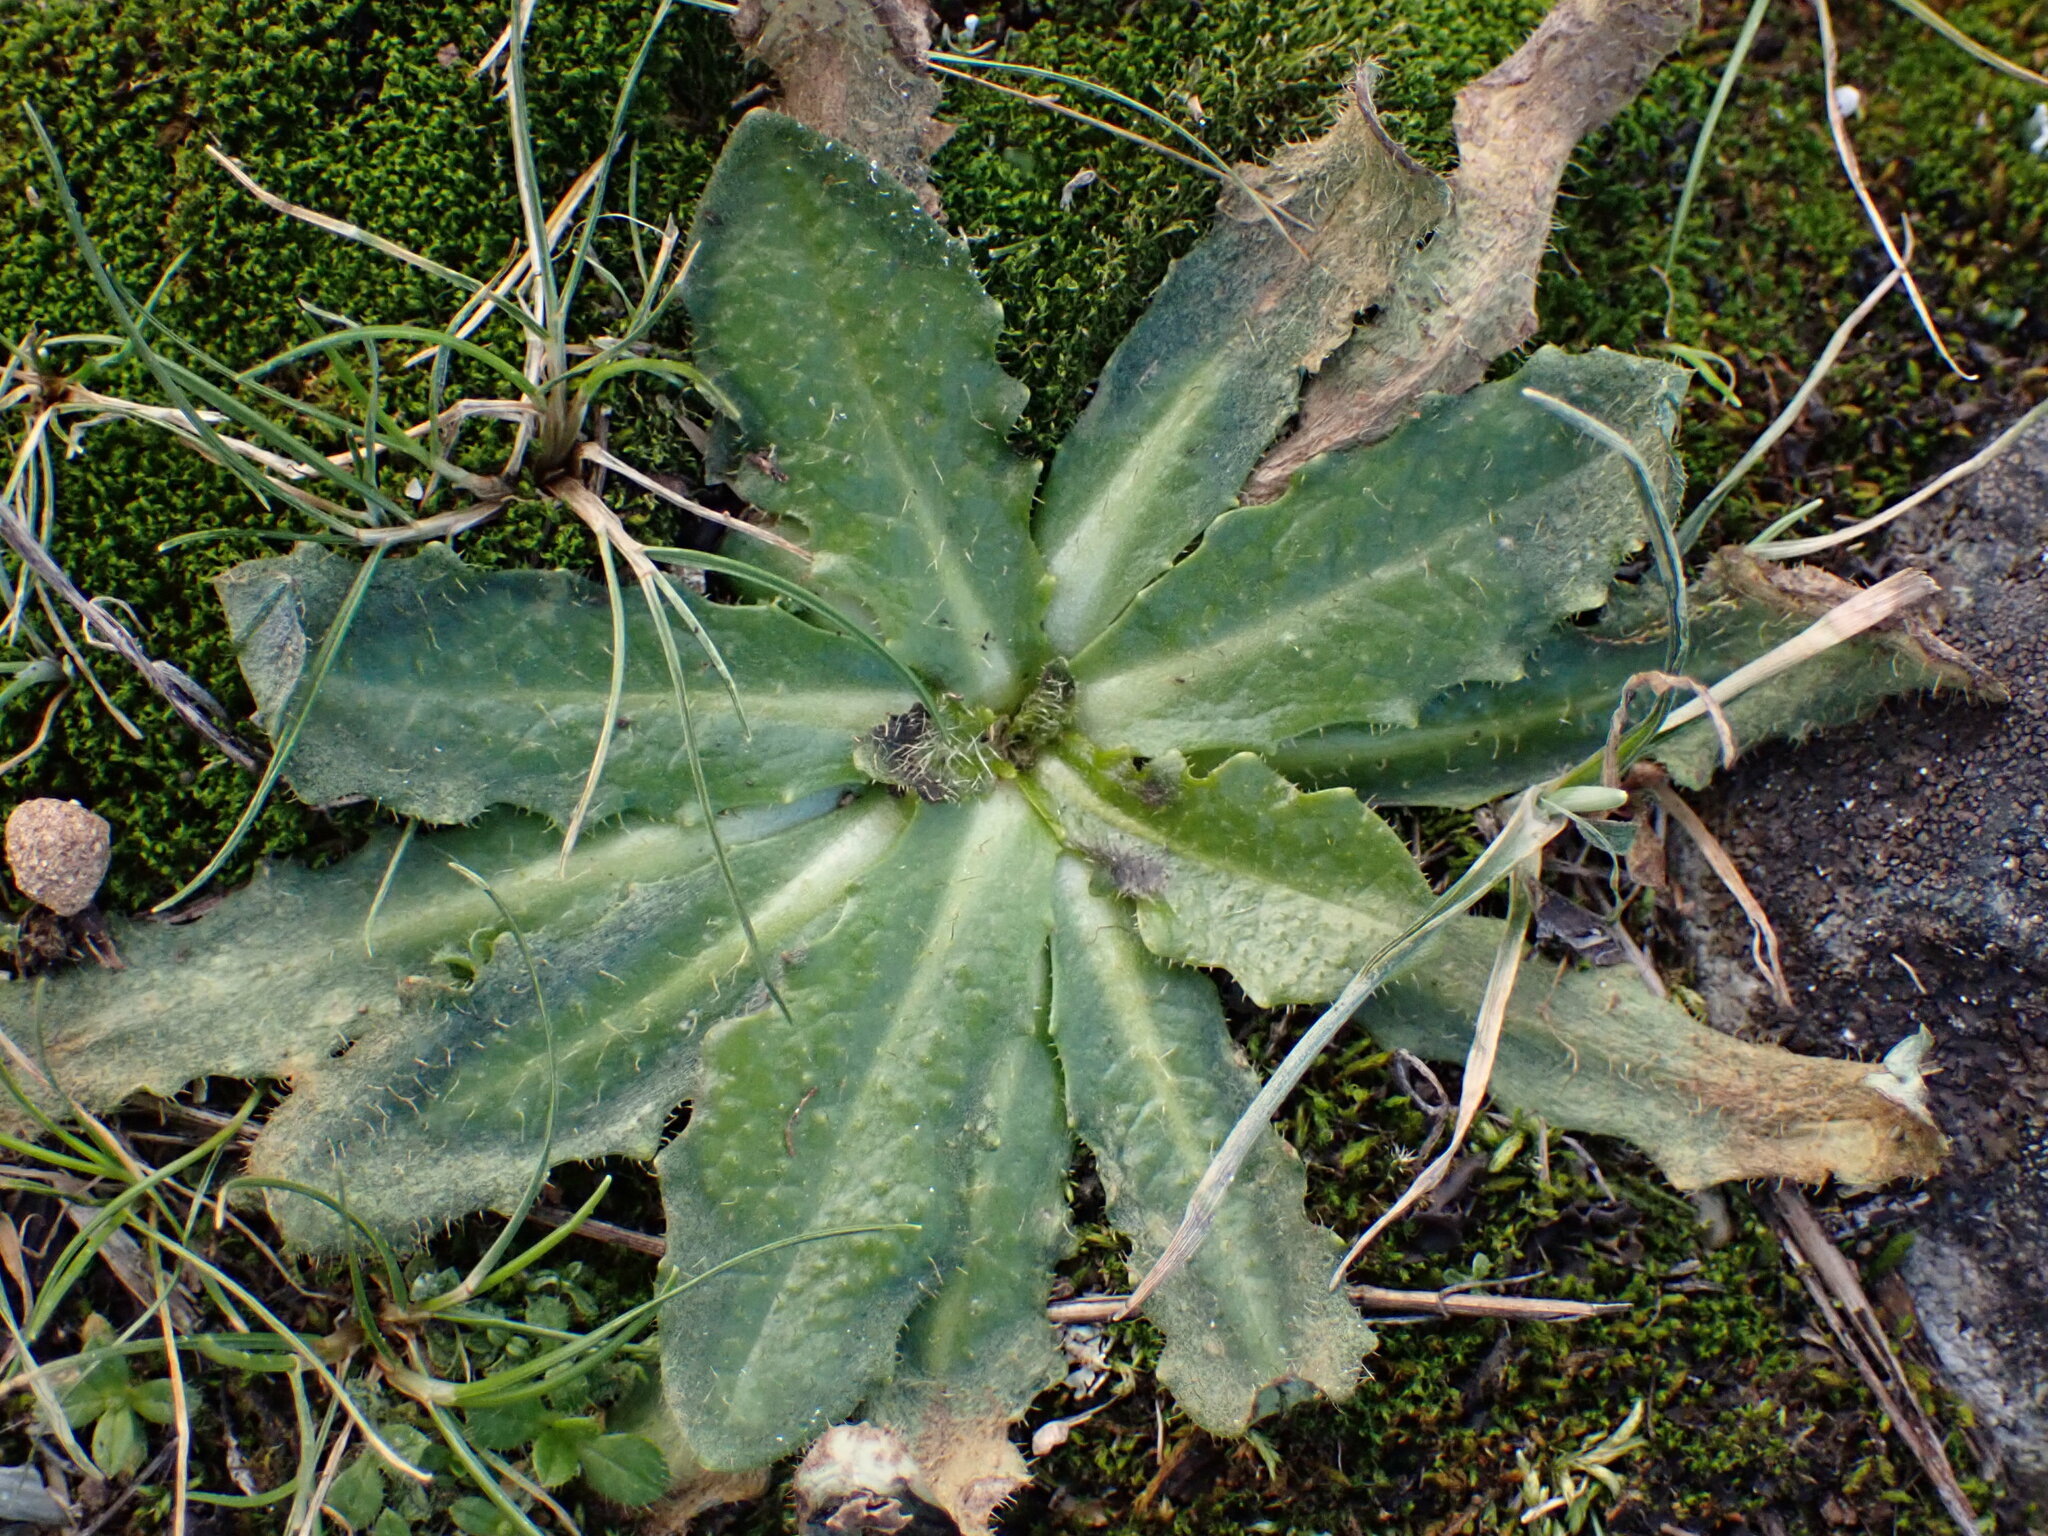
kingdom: Plantae
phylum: Tracheophyta
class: Magnoliopsida
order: Asterales
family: Asteraceae
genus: Hypochaeris
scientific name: Hypochaeris radicata
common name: Flatweed
